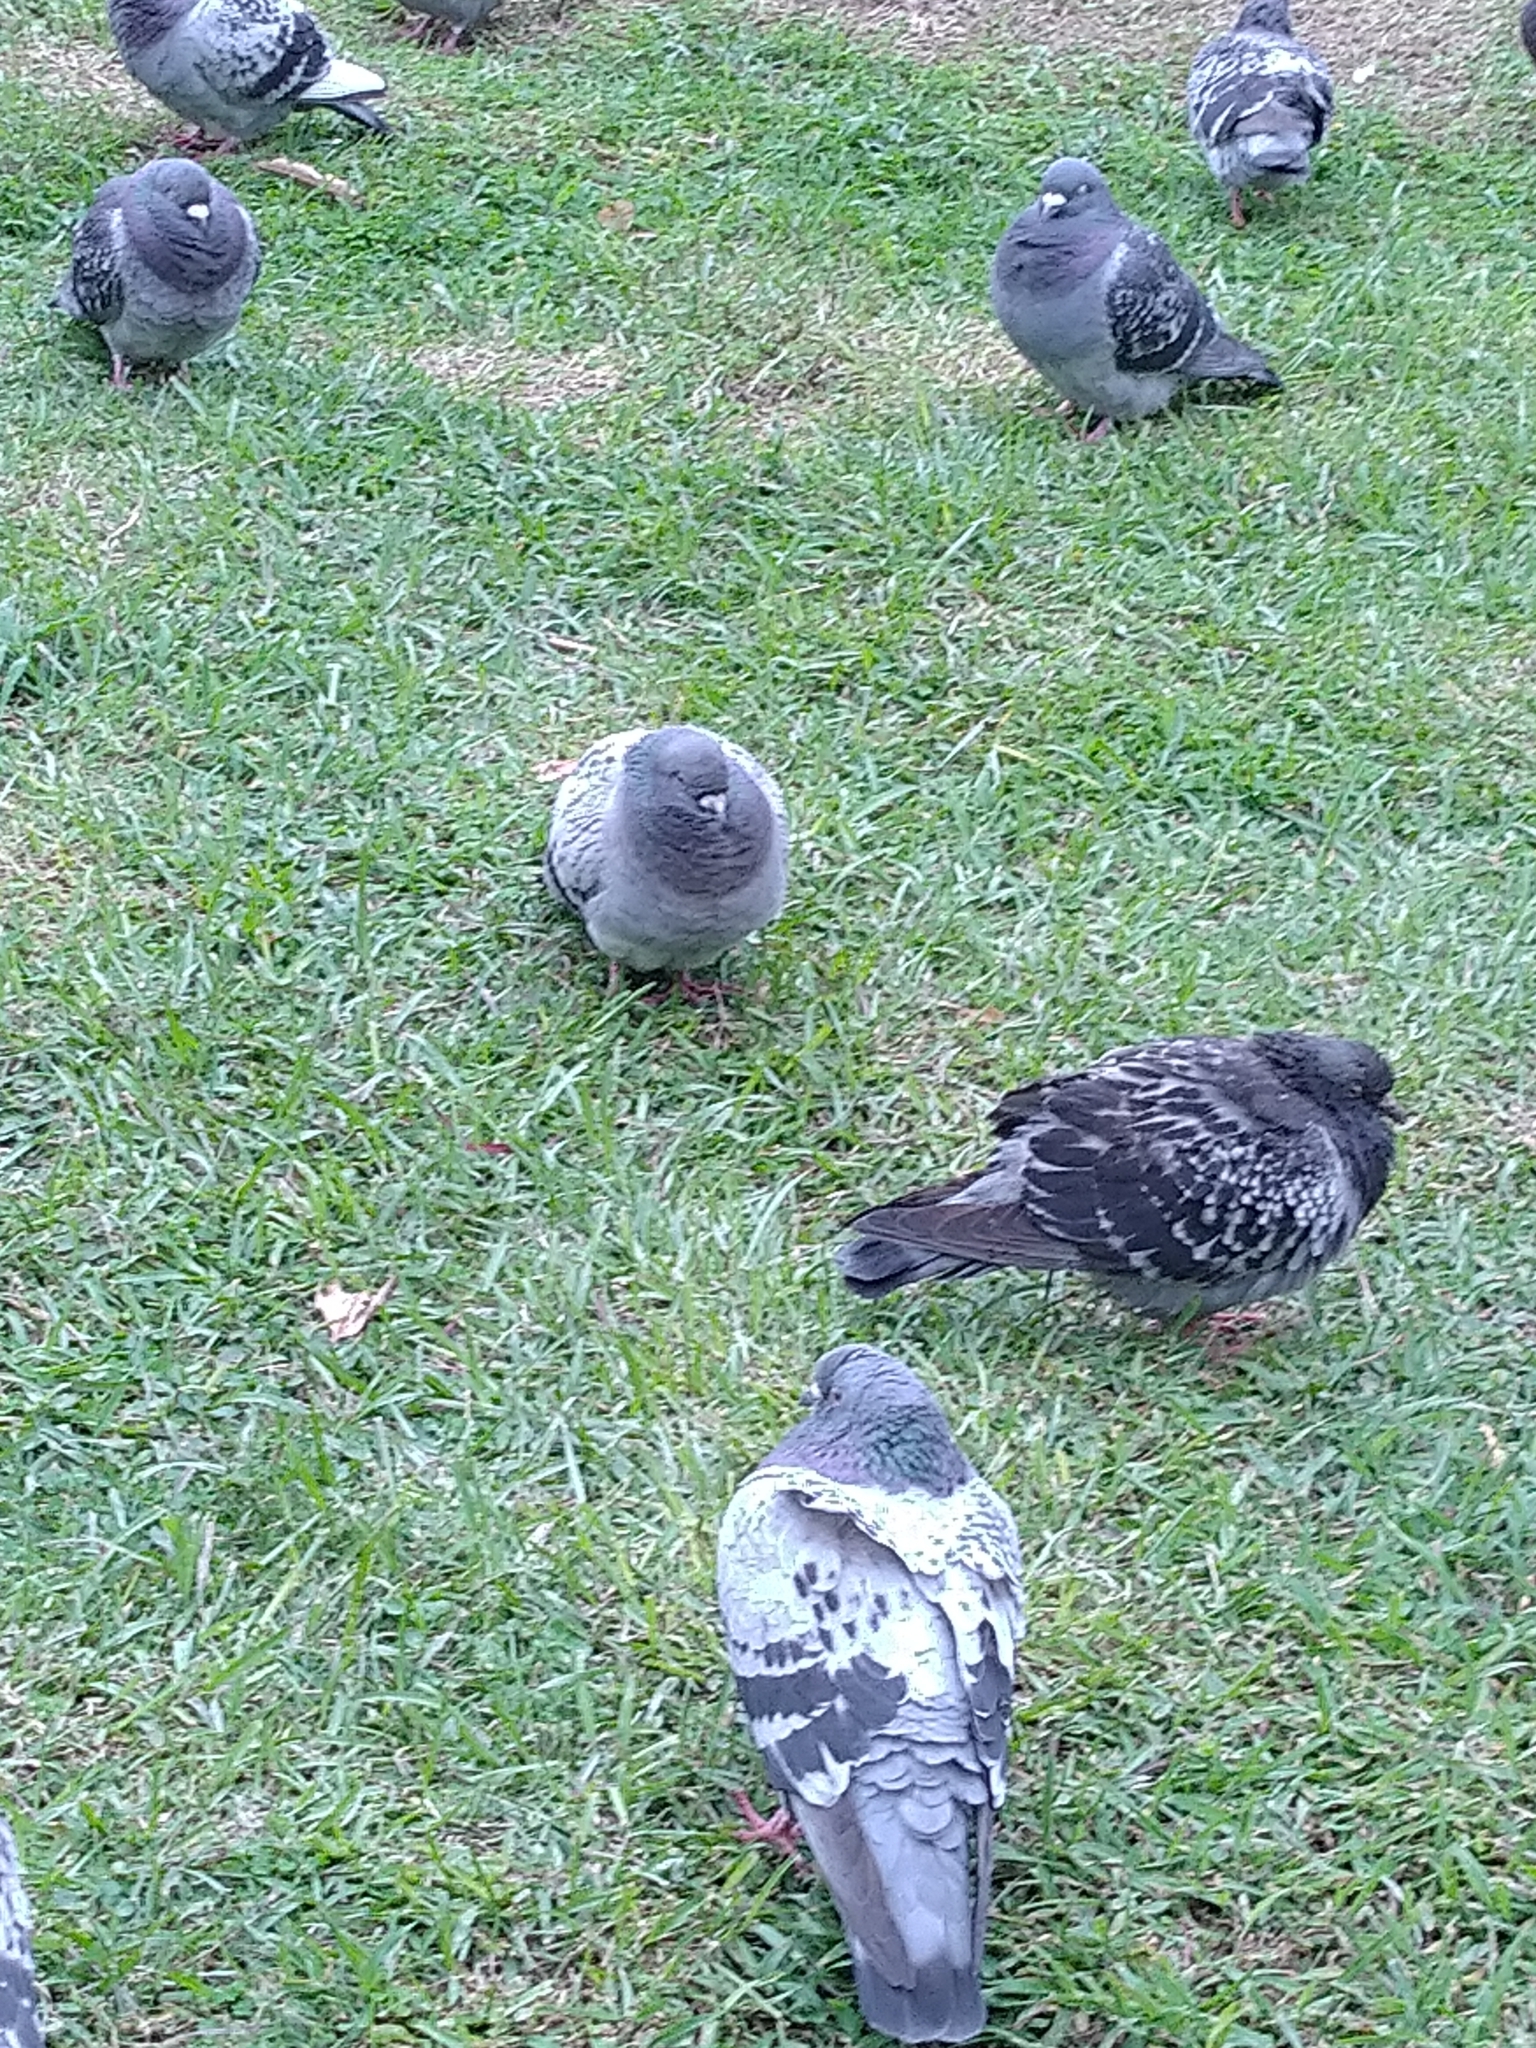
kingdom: Animalia
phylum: Chordata
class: Aves
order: Columbiformes
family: Columbidae
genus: Columba
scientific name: Columba livia
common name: Rock pigeon
